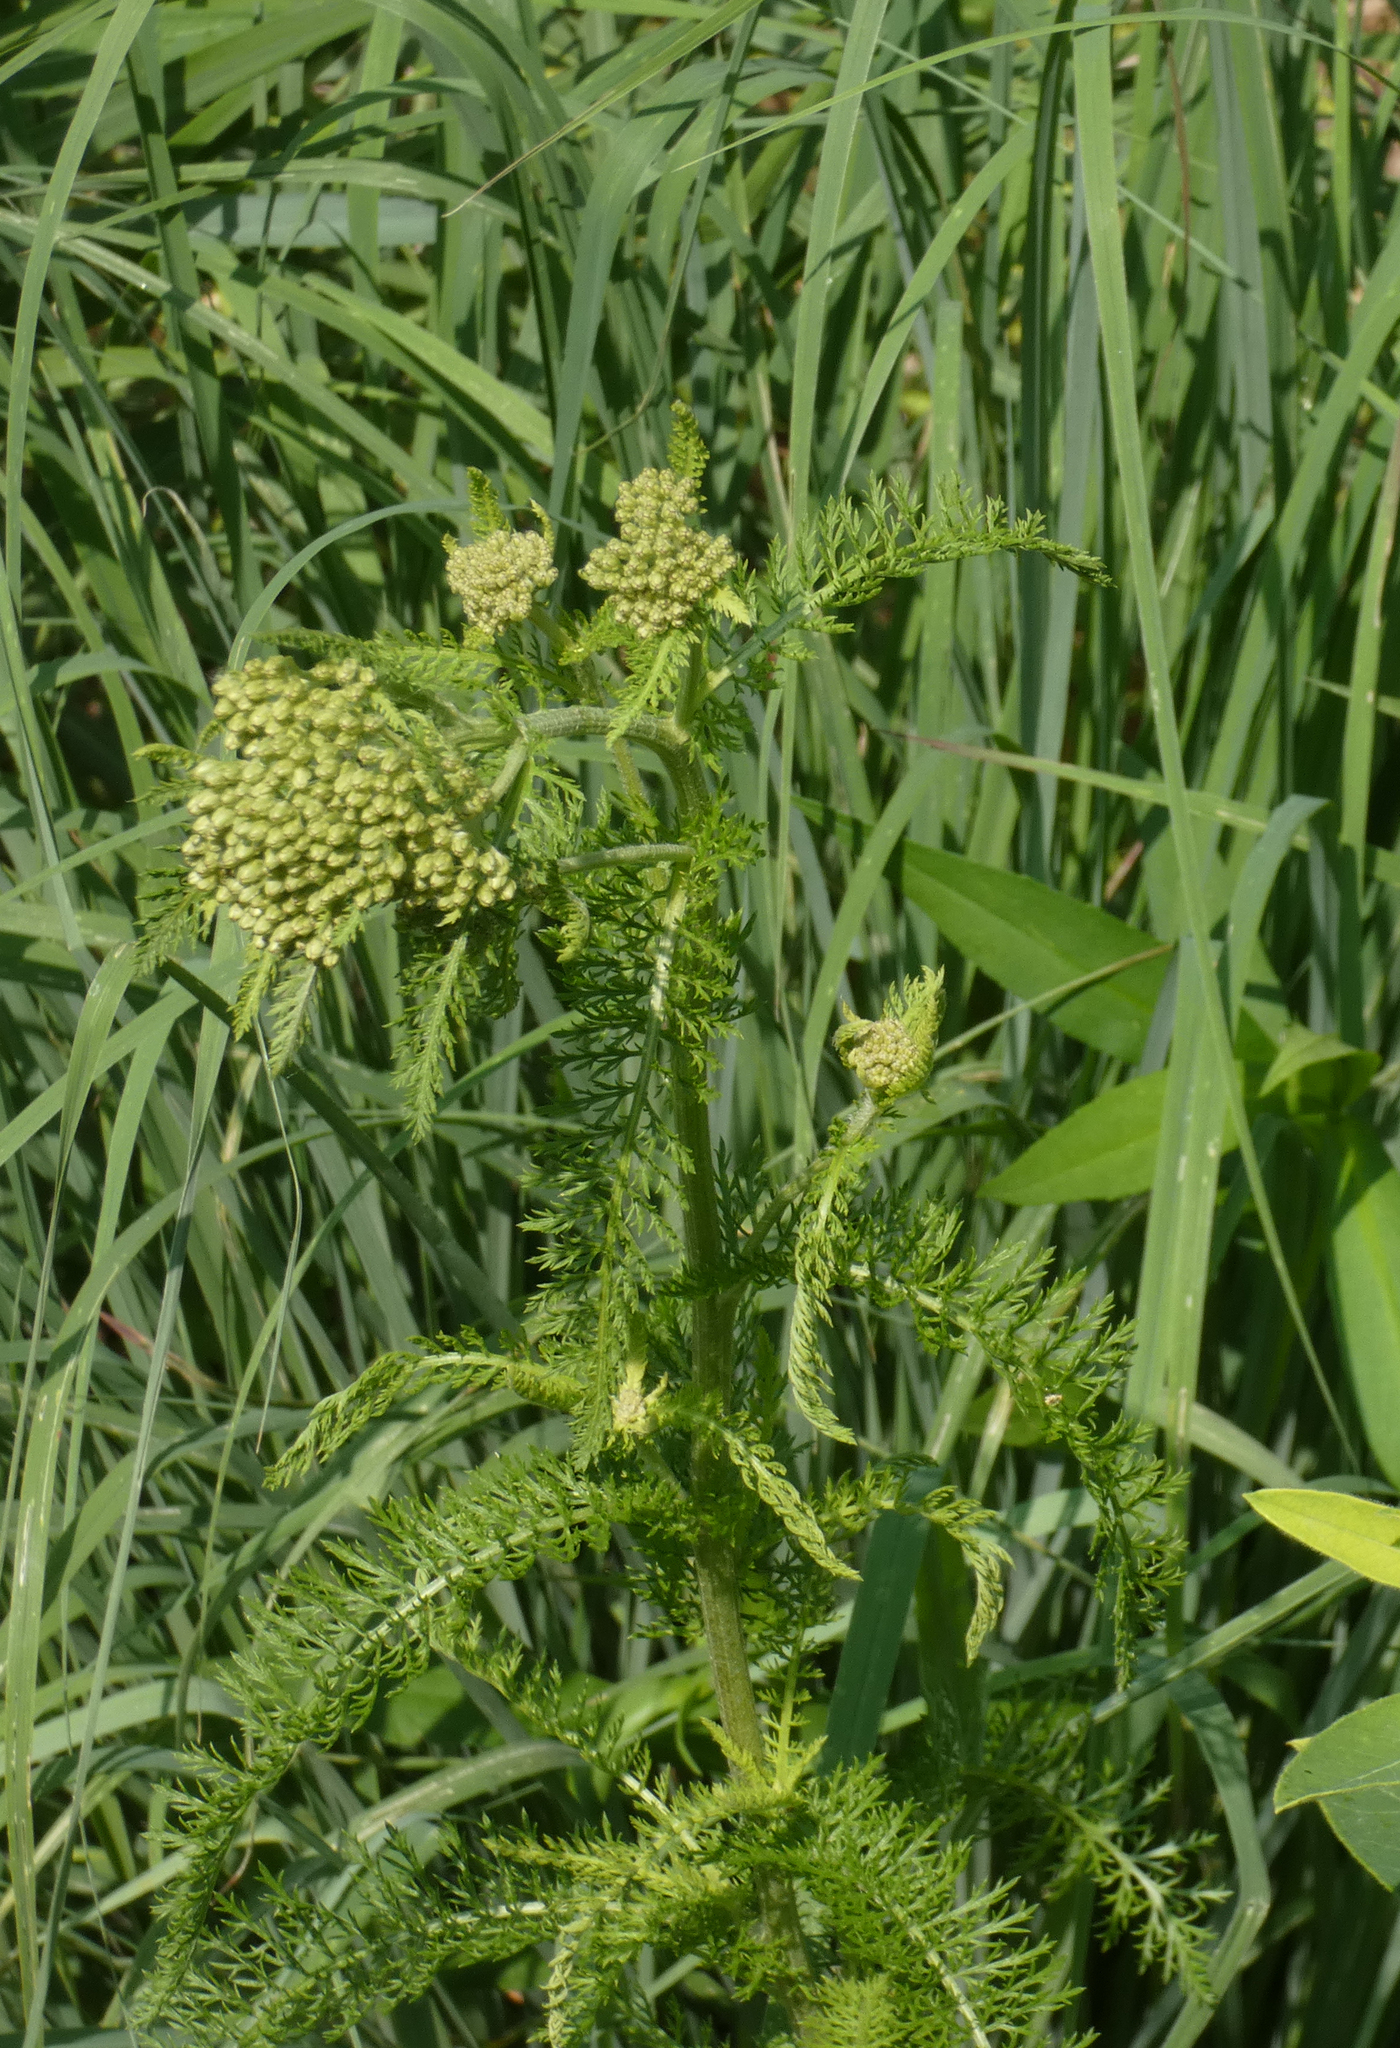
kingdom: Plantae
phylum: Tracheophyta
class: Magnoliopsida
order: Asterales
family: Asteraceae
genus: Achillea
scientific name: Achillea millefolium
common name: Yarrow
